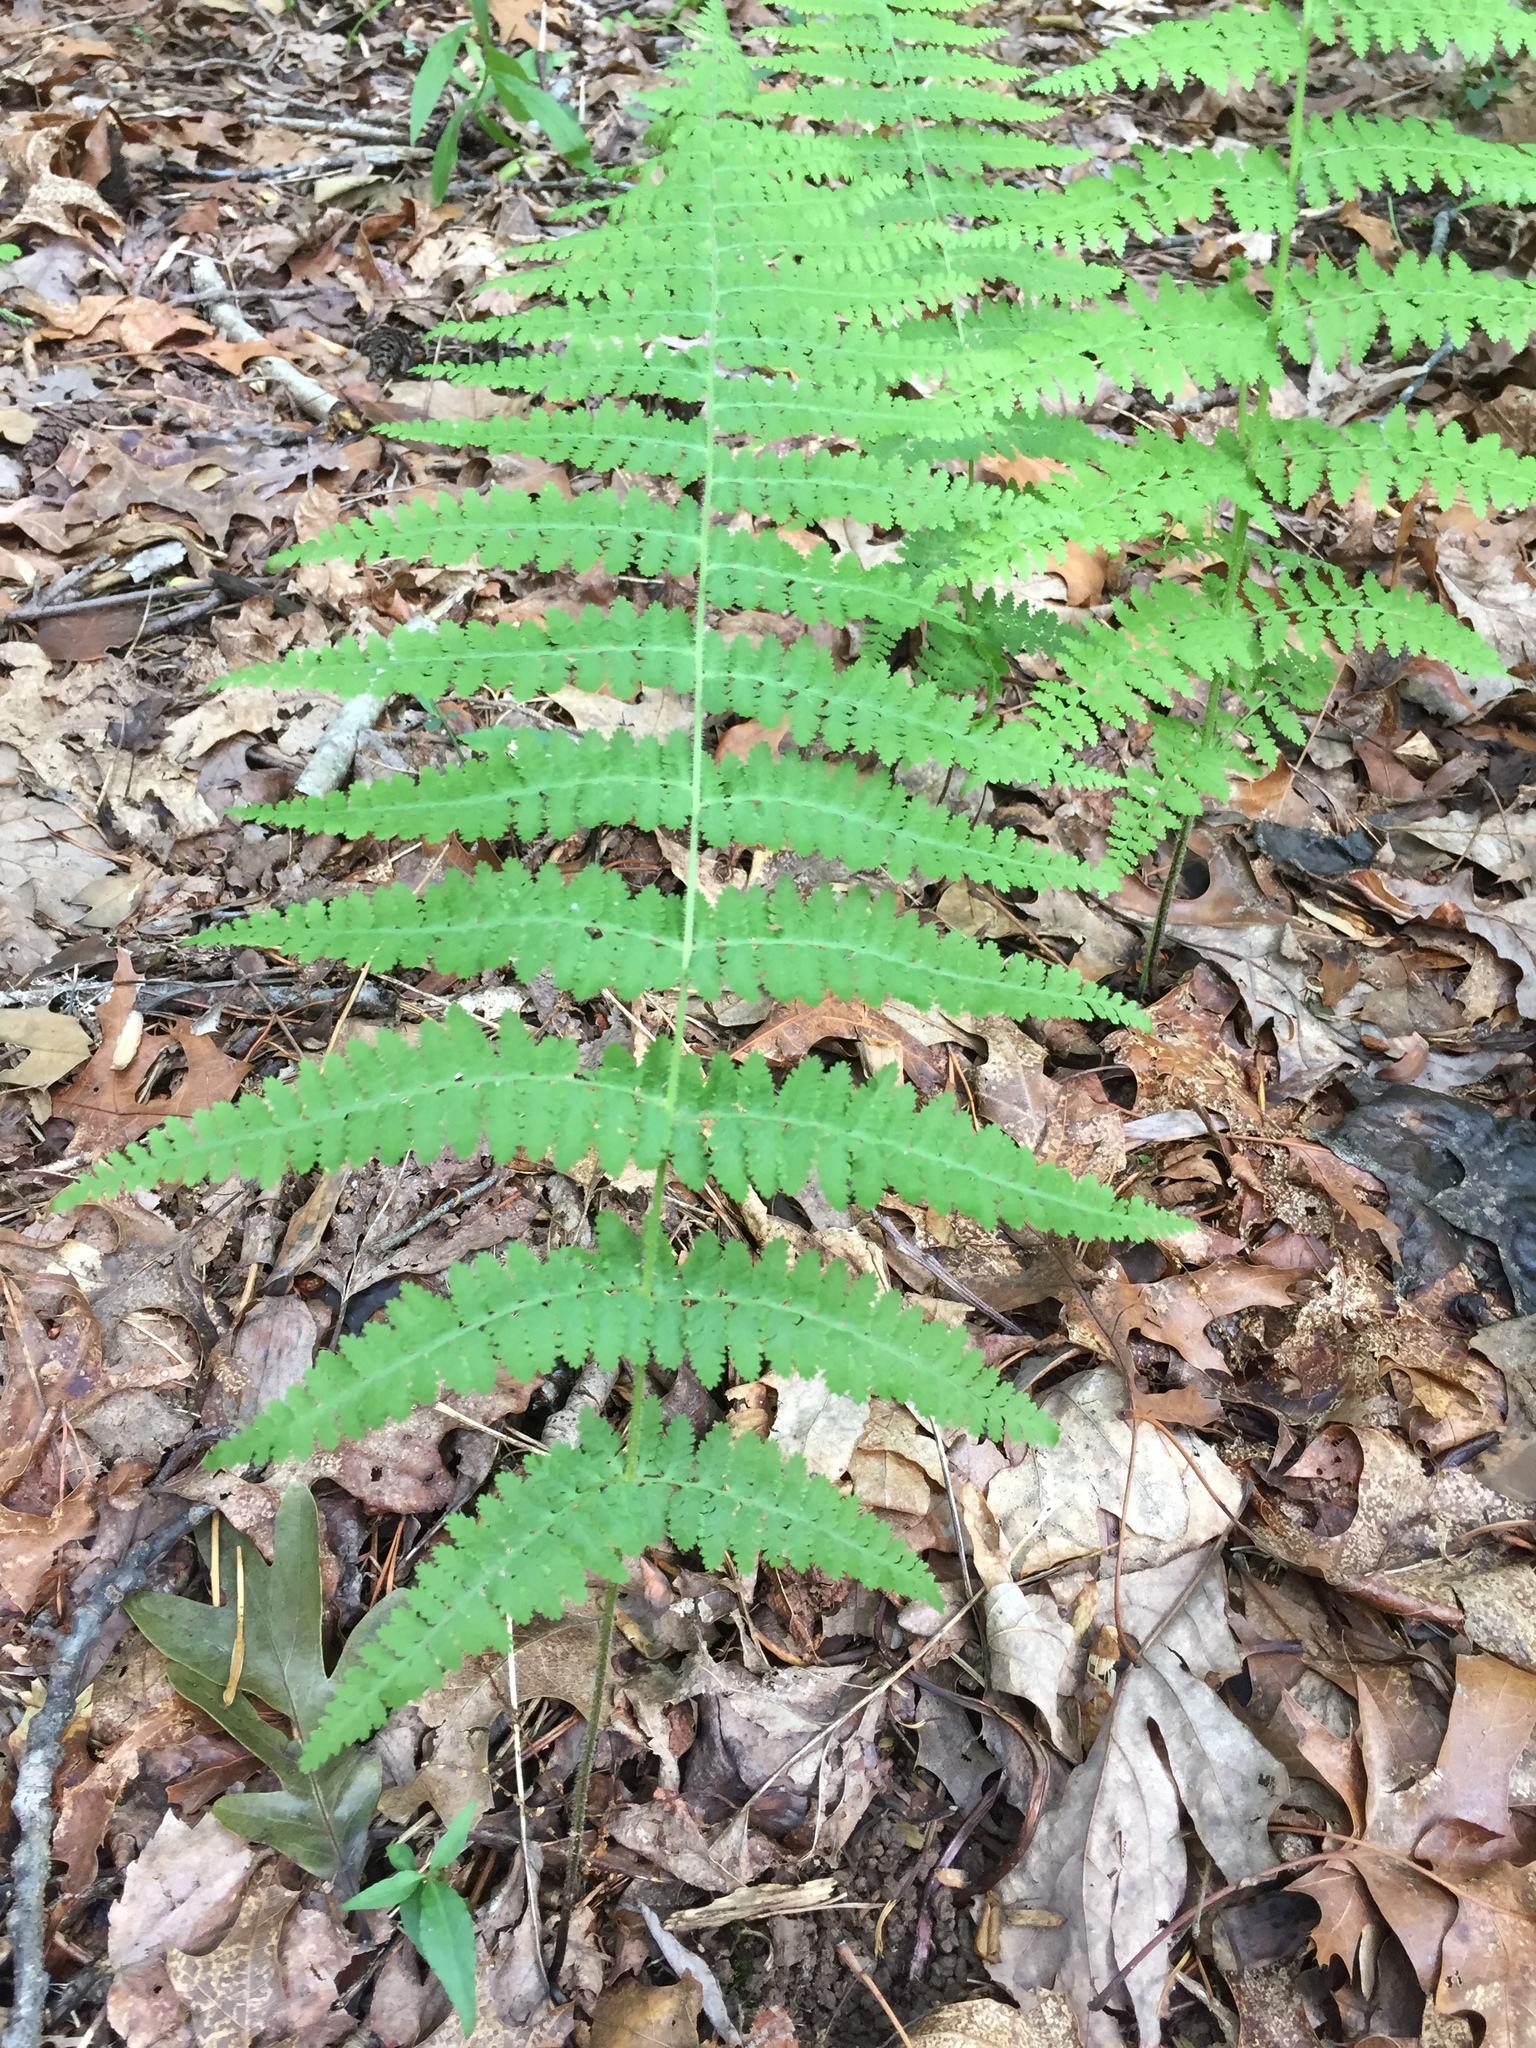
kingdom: Plantae
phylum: Tracheophyta
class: Polypodiopsida
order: Polypodiales
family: Dennstaedtiaceae
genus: Sitobolium
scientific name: Sitobolium punctilobum
